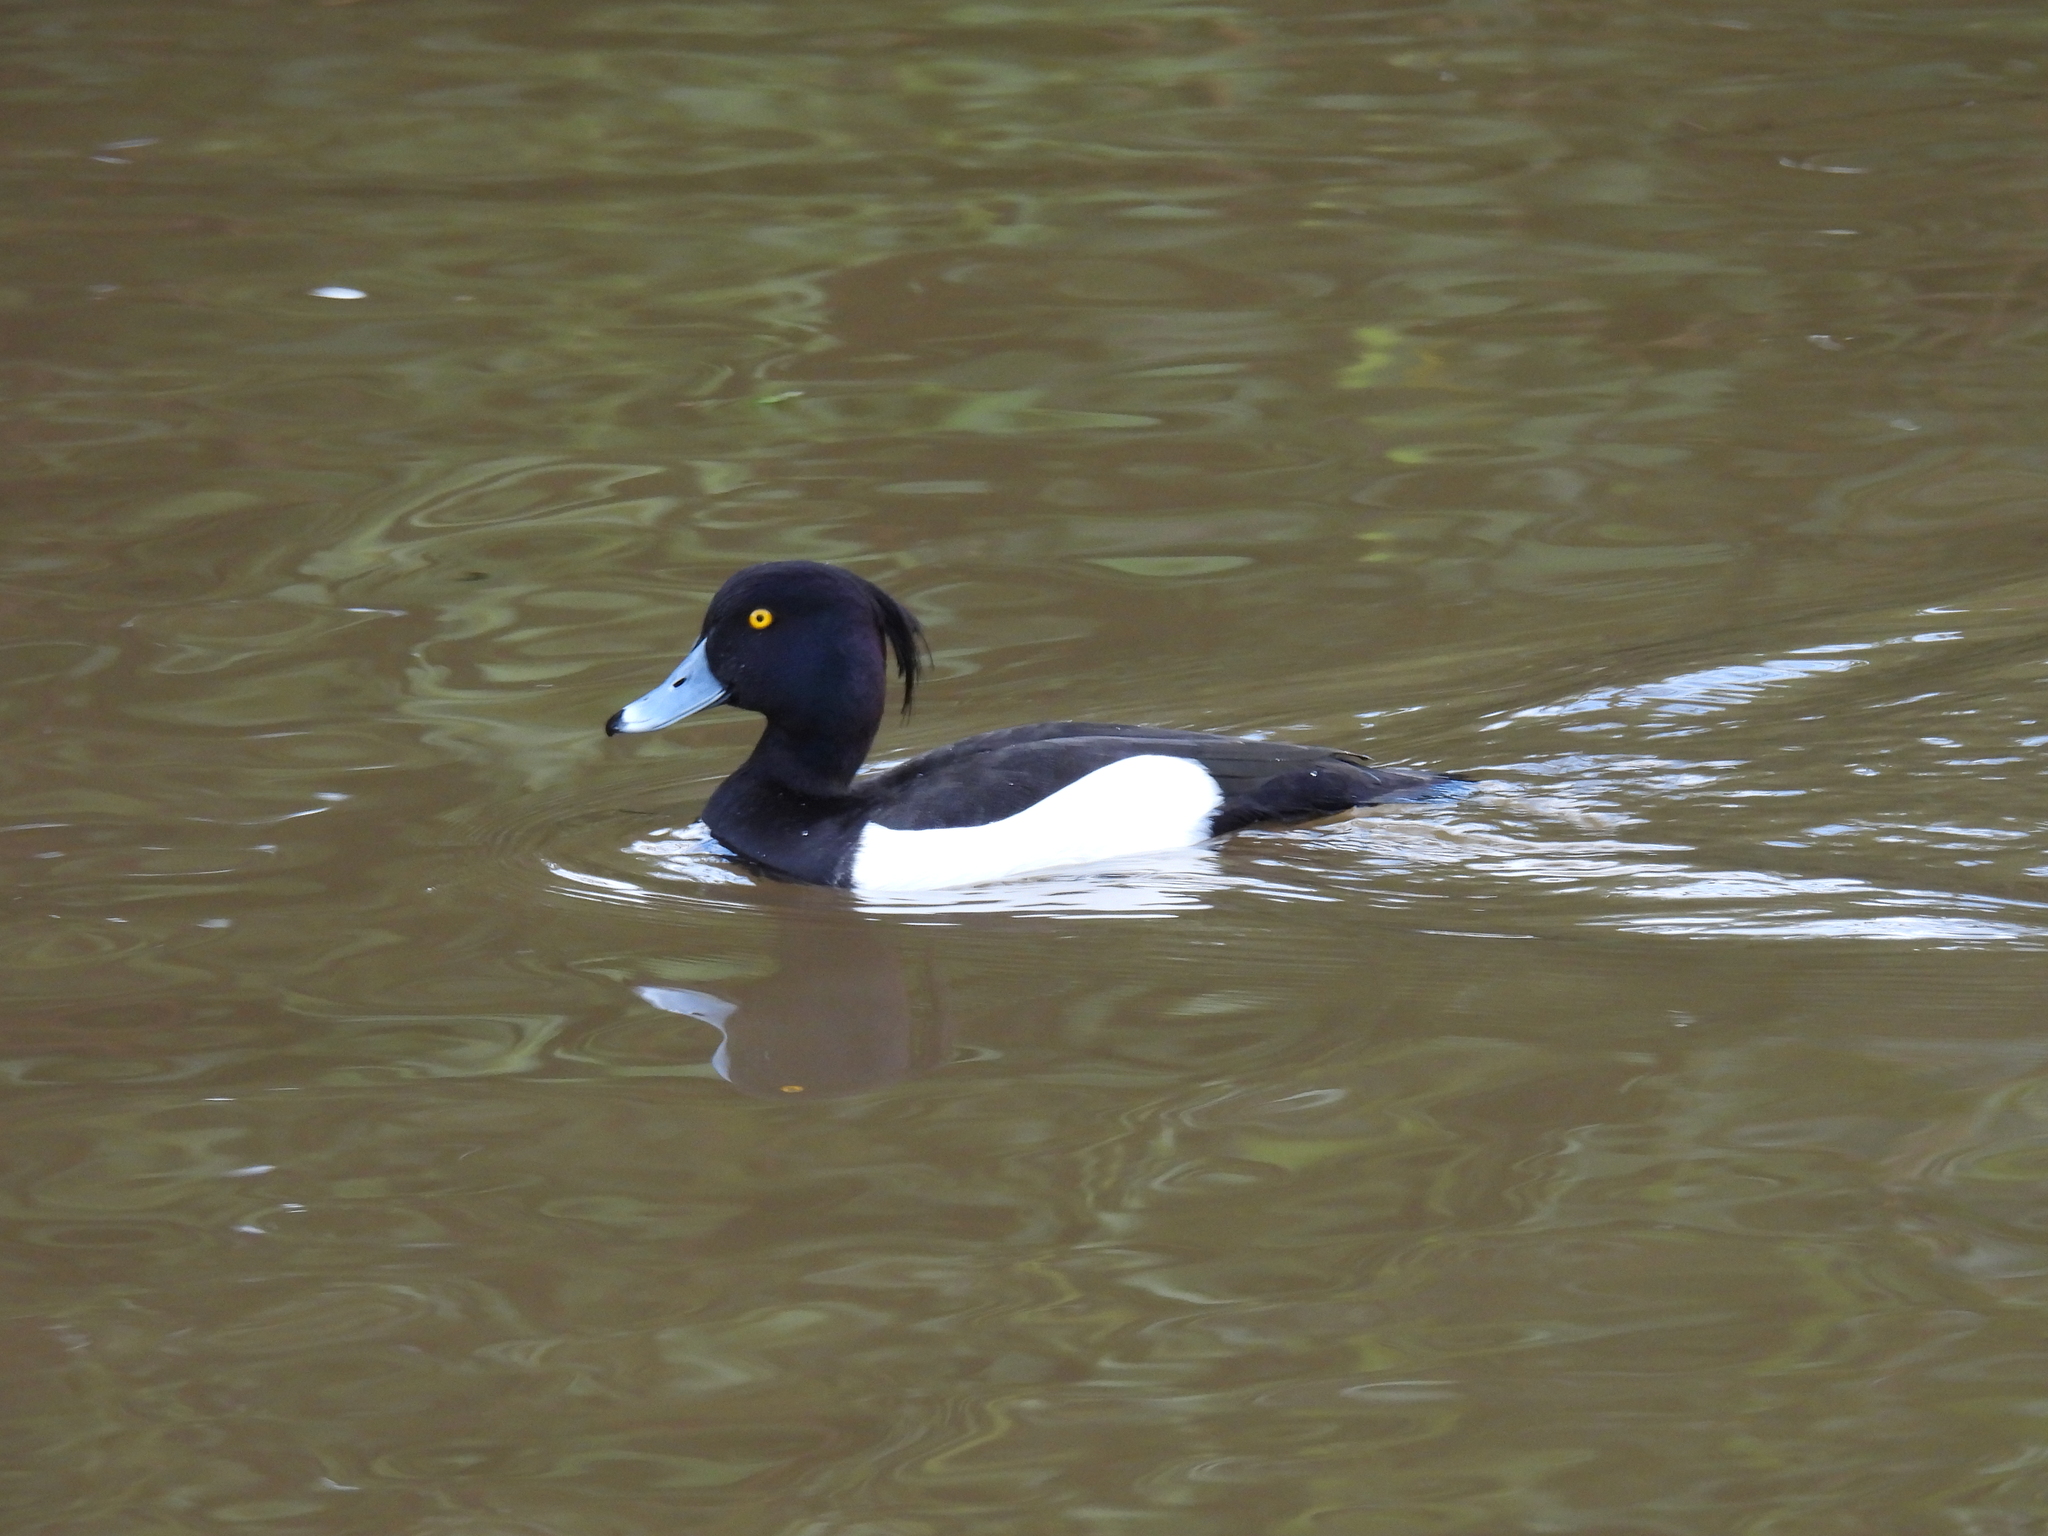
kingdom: Animalia
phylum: Chordata
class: Aves
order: Anseriformes
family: Anatidae
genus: Aythya
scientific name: Aythya fuligula
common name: Tufted duck
